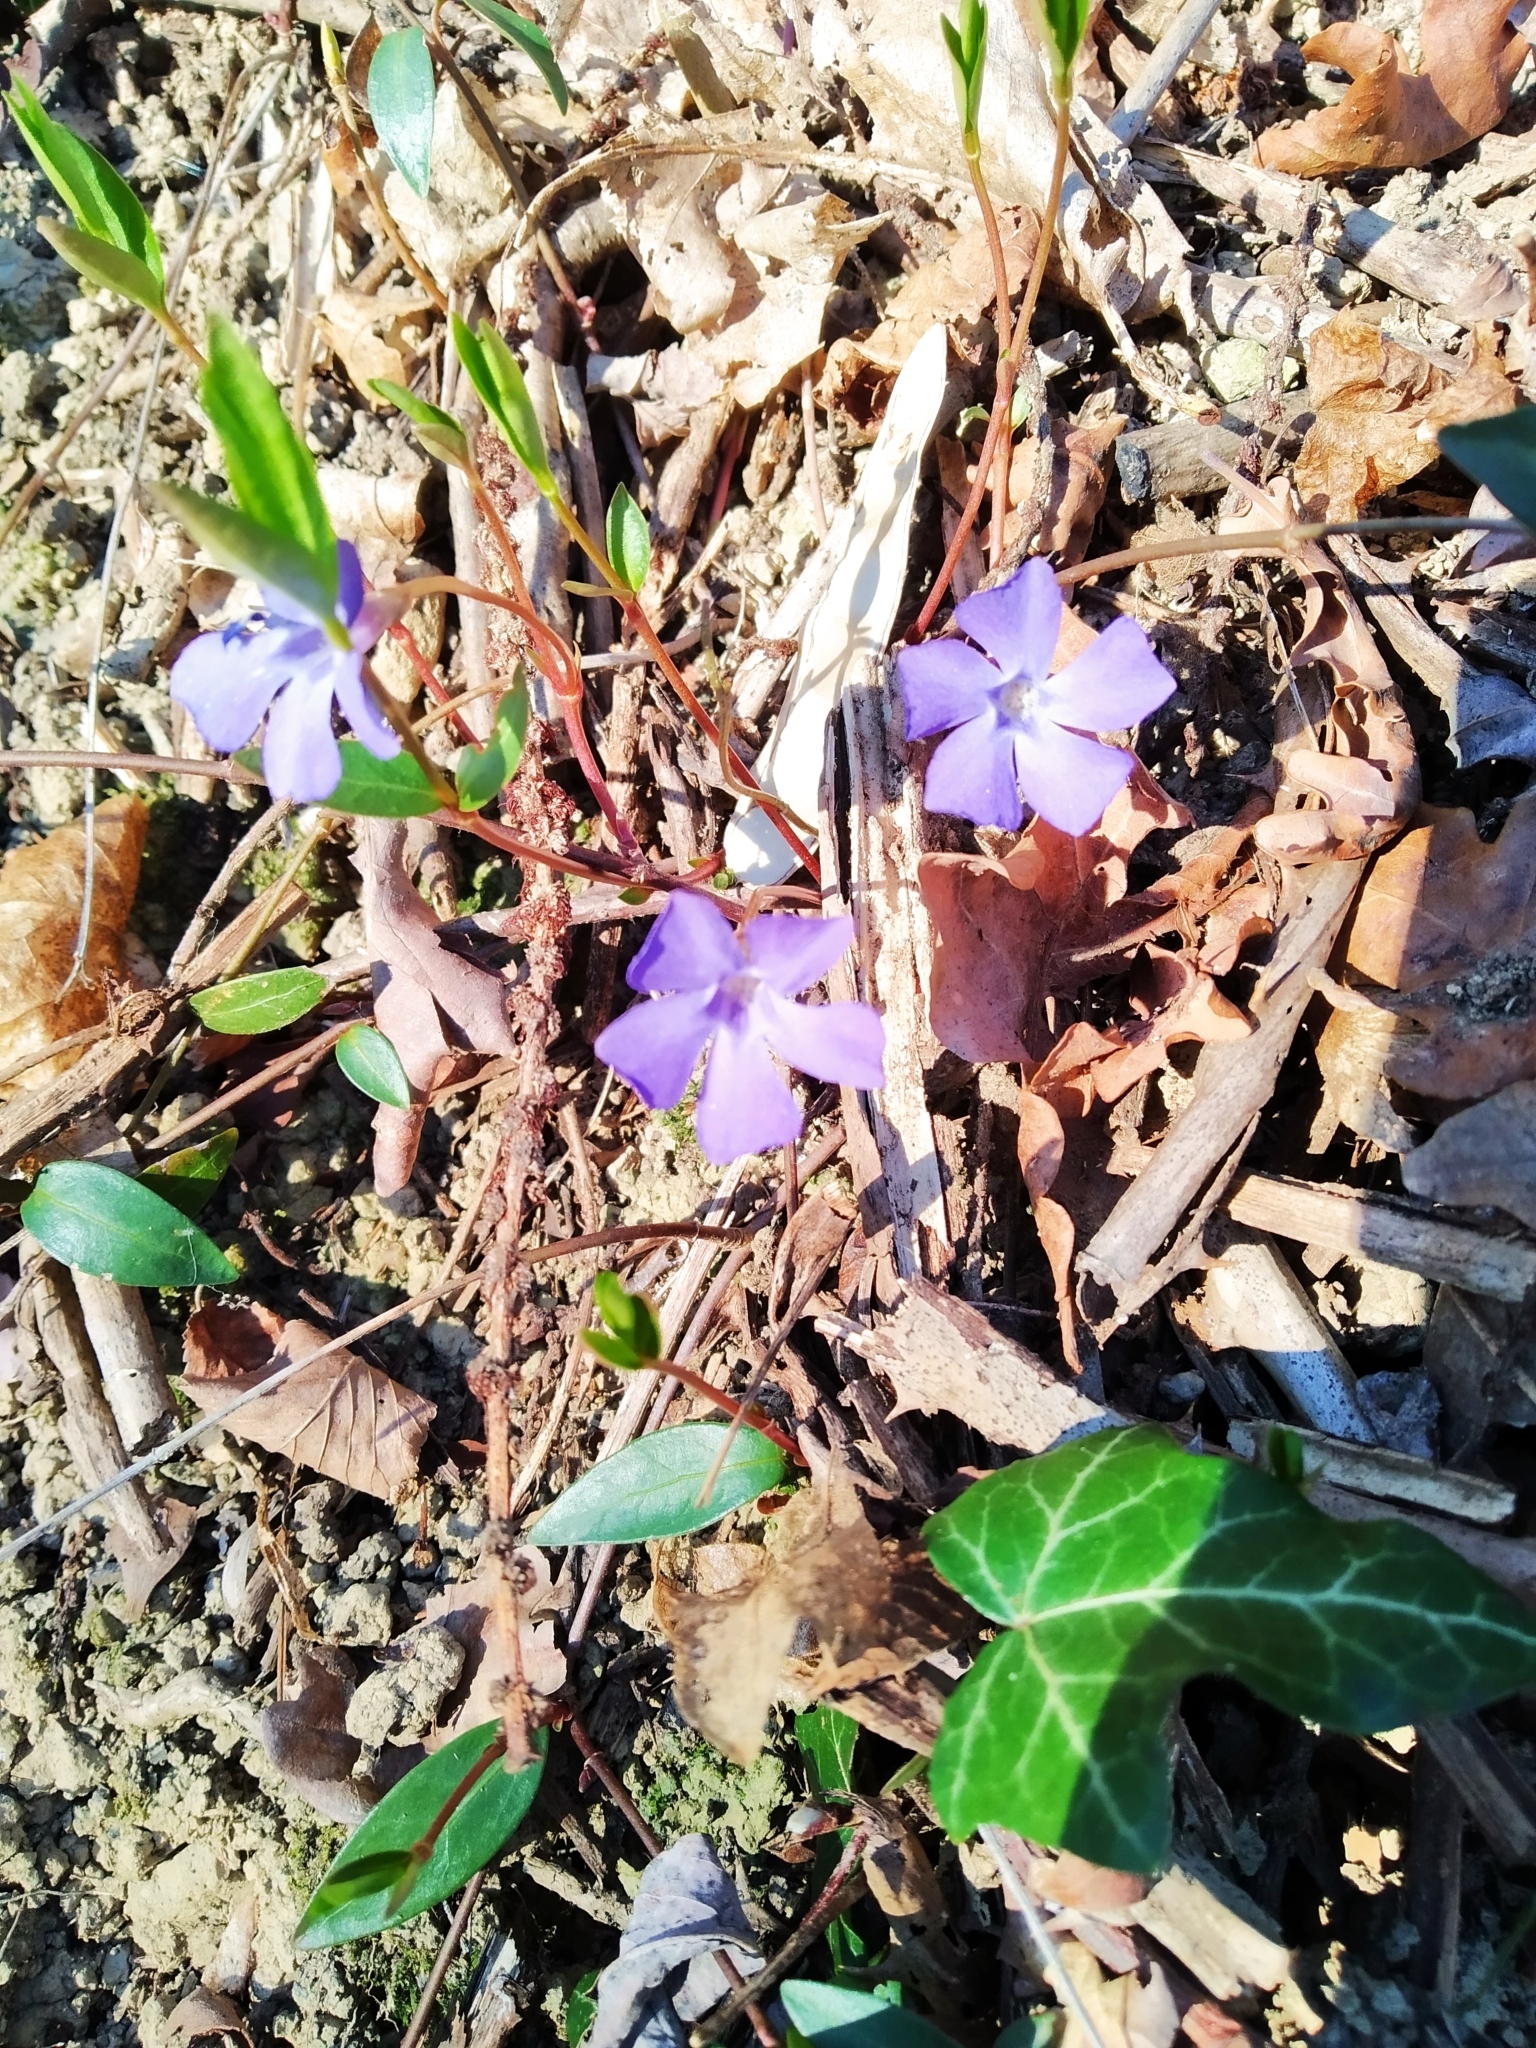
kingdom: Plantae
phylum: Tracheophyta
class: Magnoliopsida
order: Gentianales
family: Apocynaceae
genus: Vinca
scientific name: Vinca minor
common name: Lesser periwinkle
